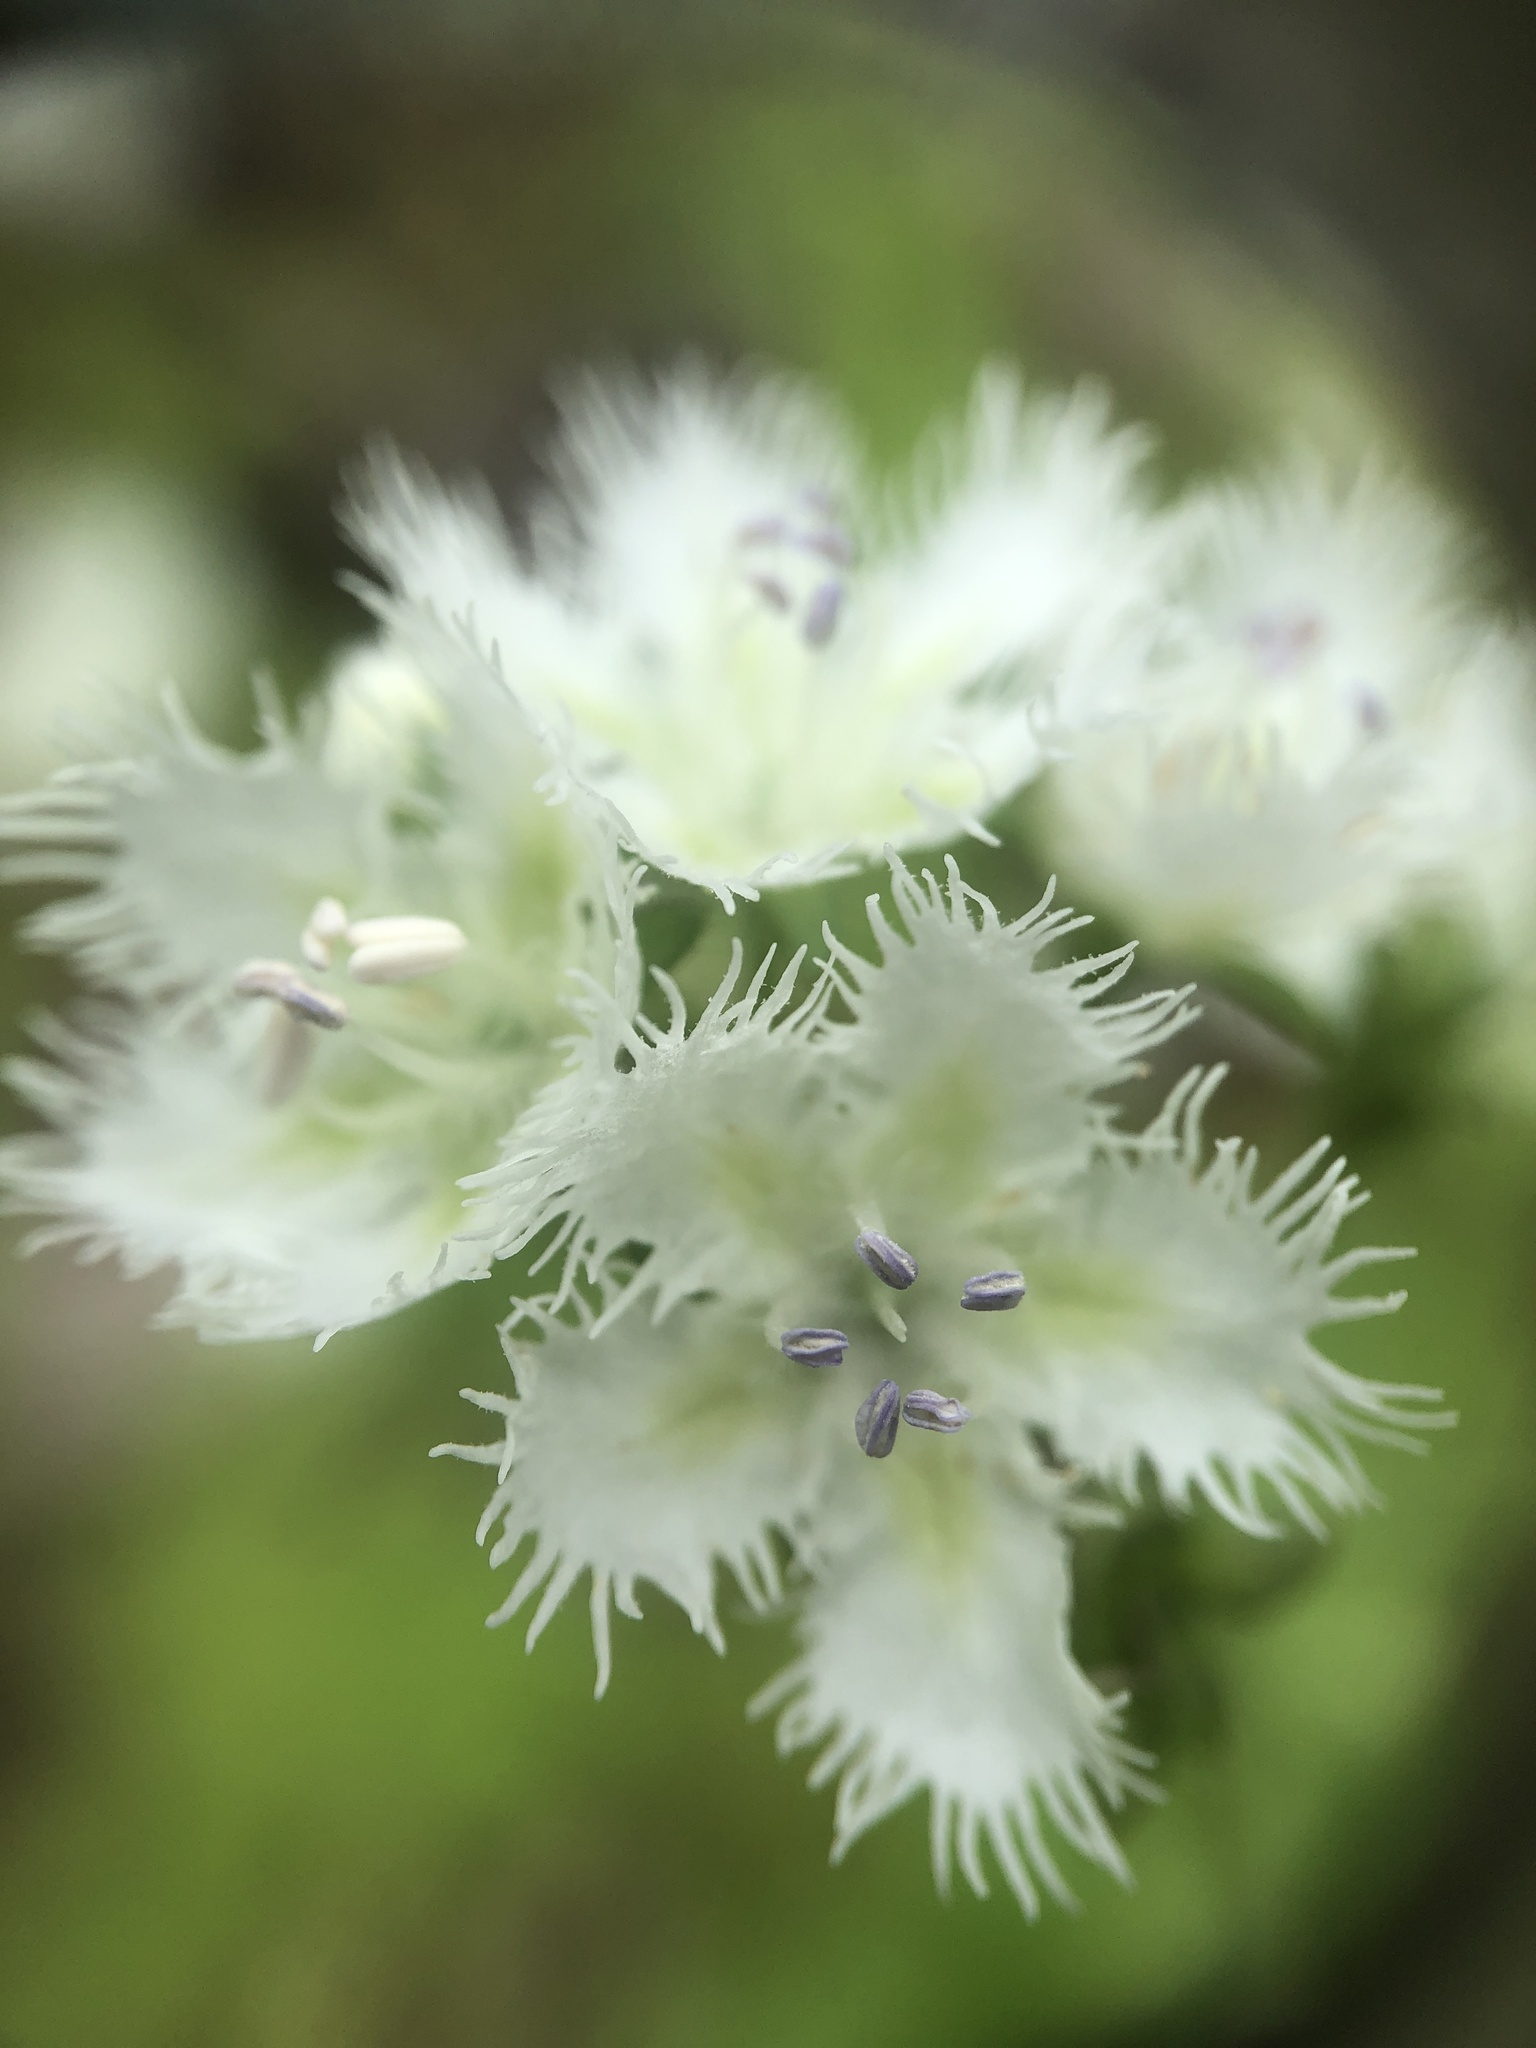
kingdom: Plantae
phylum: Tracheophyta
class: Magnoliopsida
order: Boraginales
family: Hydrophyllaceae
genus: Phacelia
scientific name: Phacelia fimbriata
